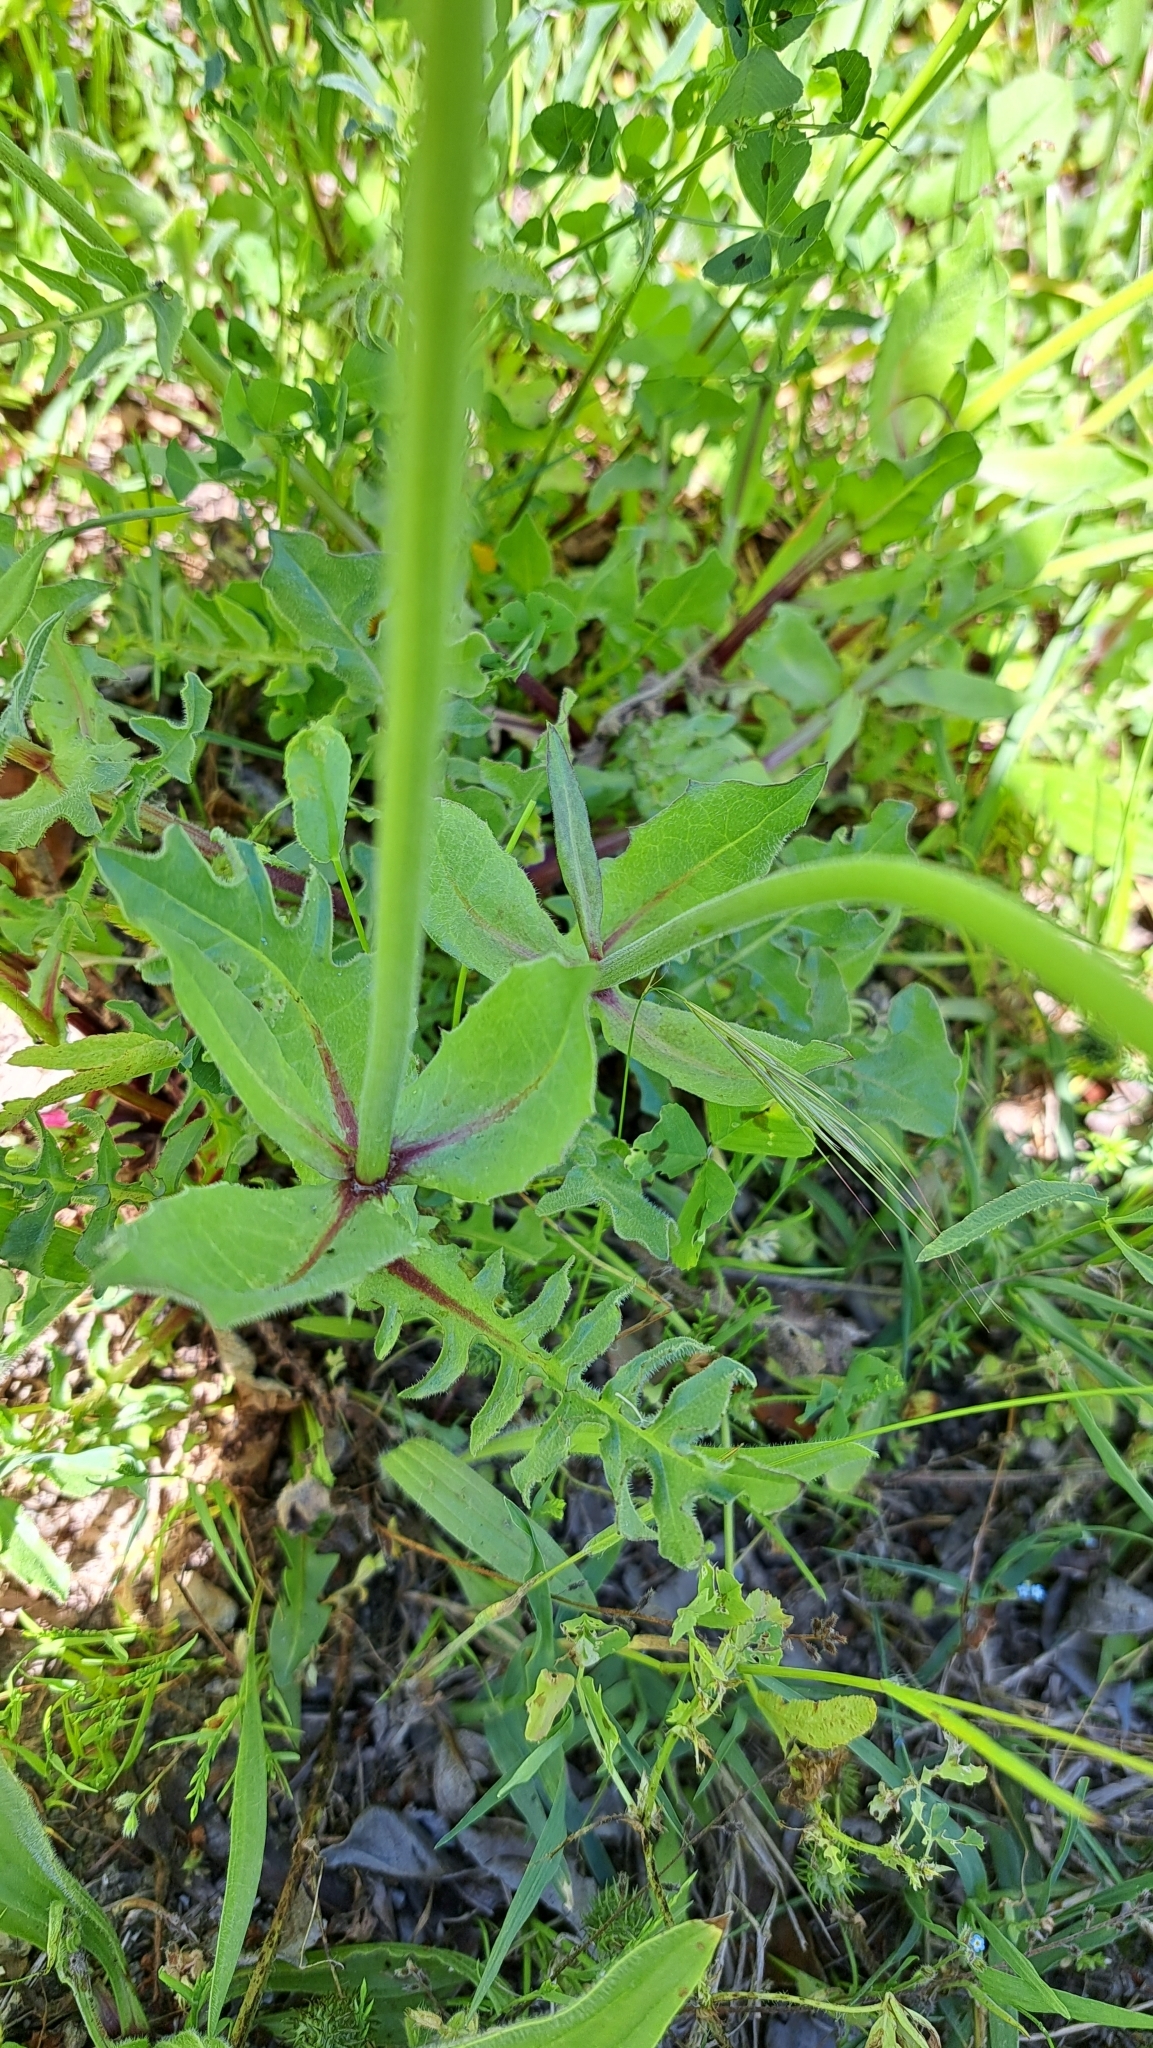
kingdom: Plantae
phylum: Tracheophyta
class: Magnoliopsida
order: Asterales
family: Asteraceae
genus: Urospermum
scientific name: Urospermum dalechampii
